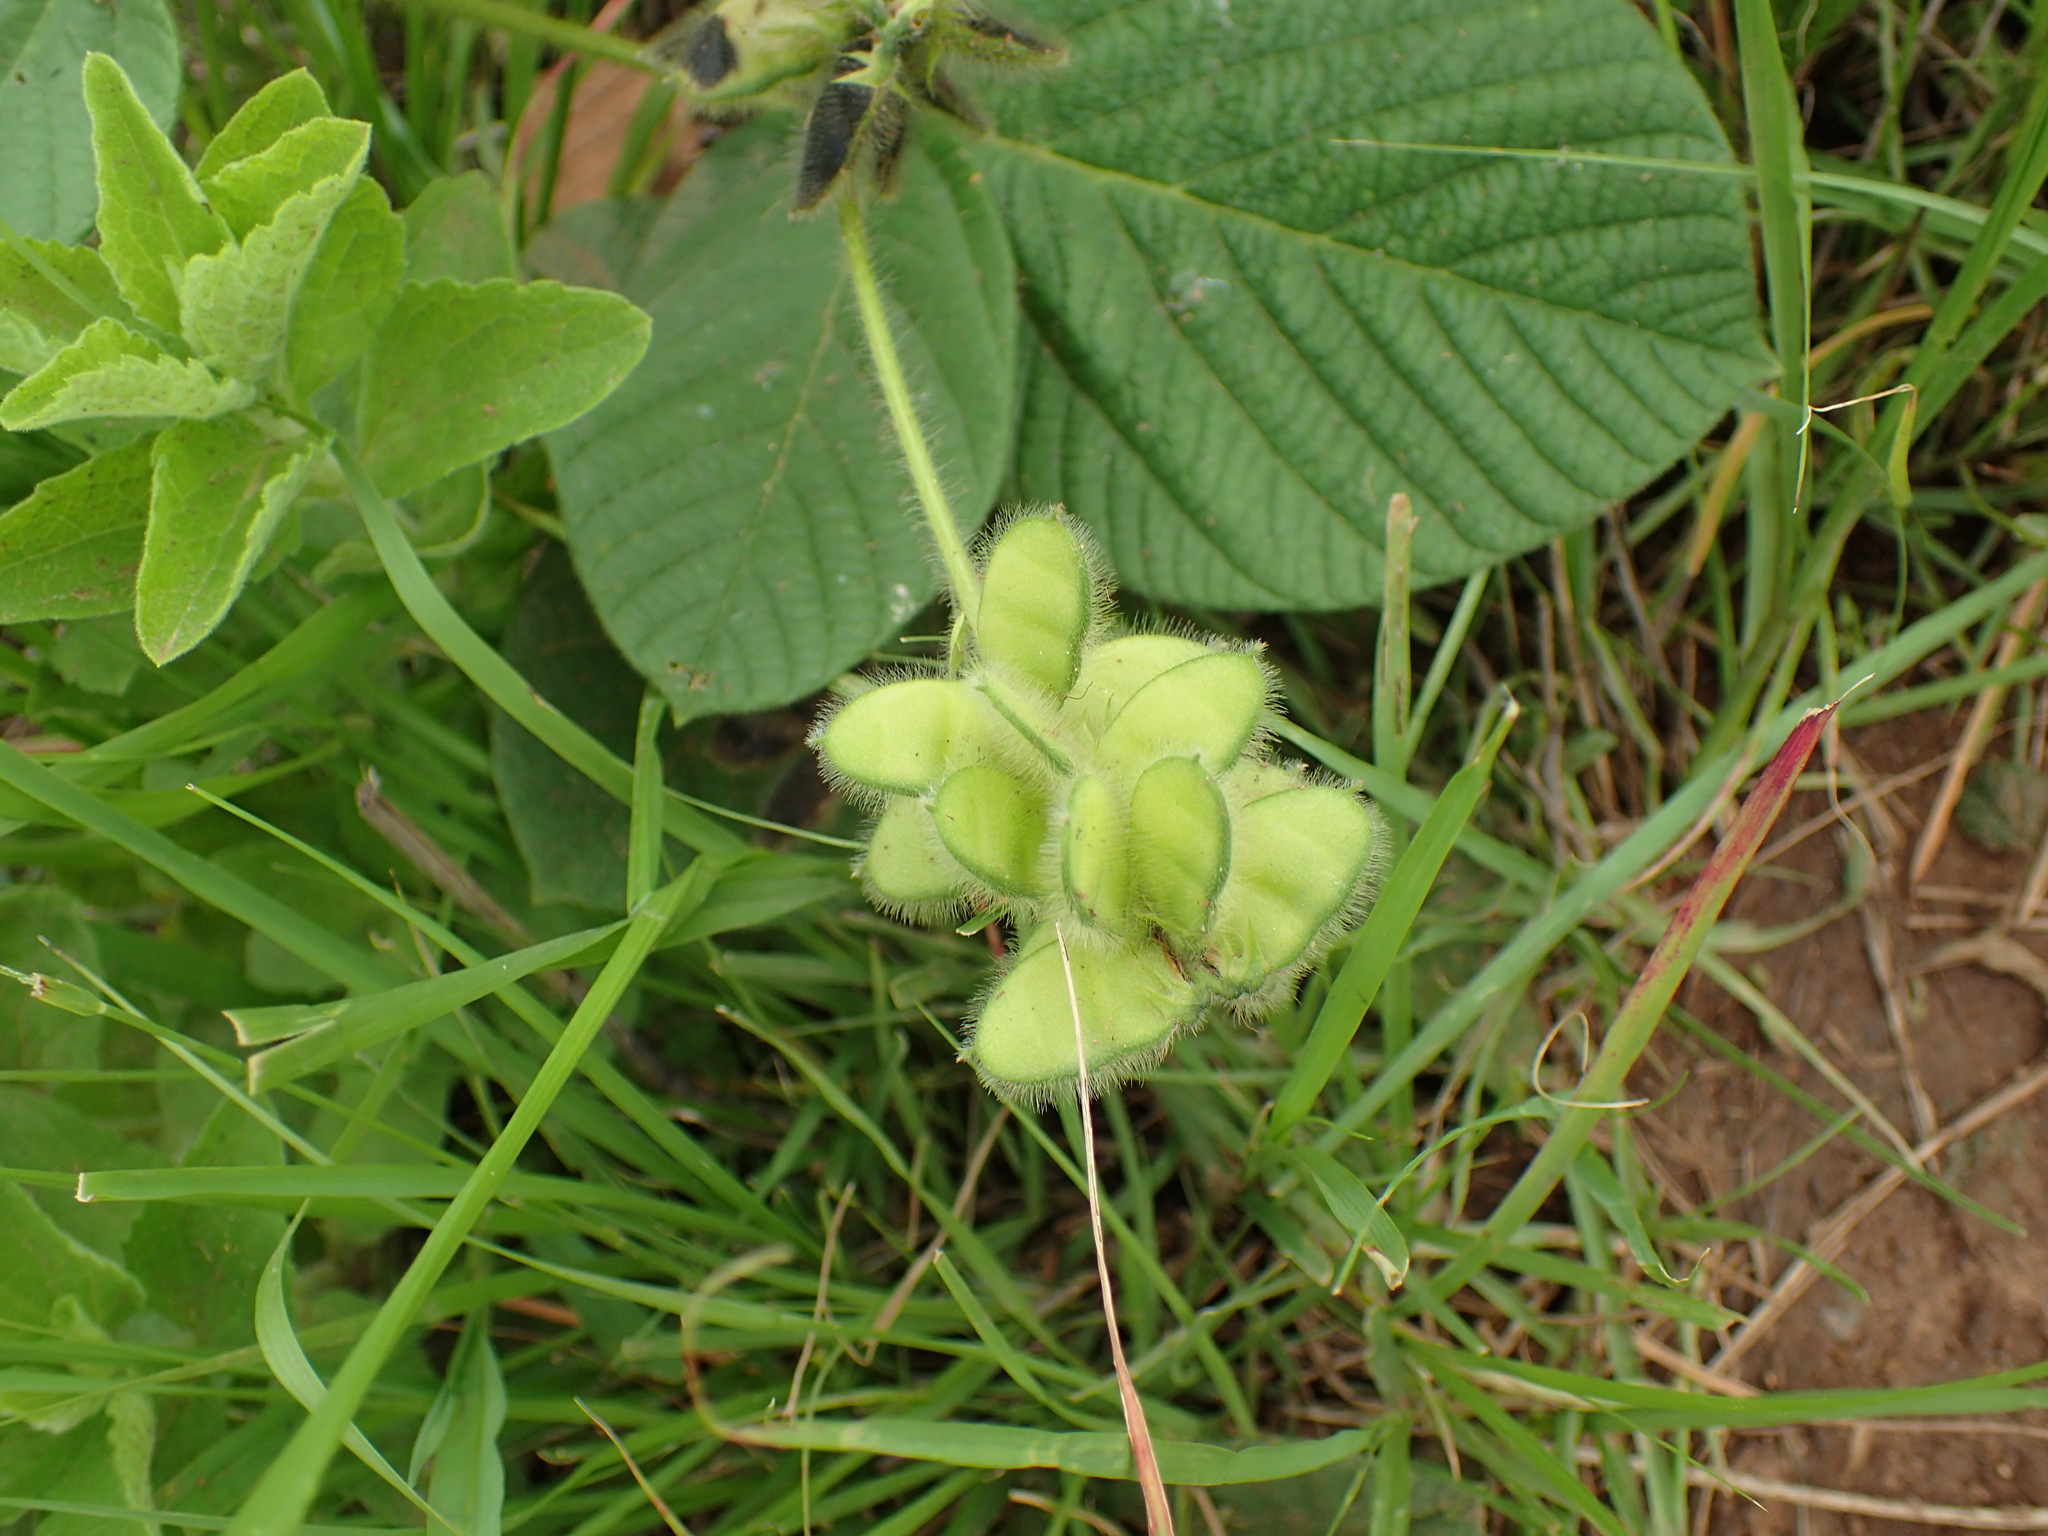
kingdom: Plantae
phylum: Tracheophyta
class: Magnoliopsida
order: Fabales
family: Fabaceae
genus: Eriosema
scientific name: Eriosema cordatum
